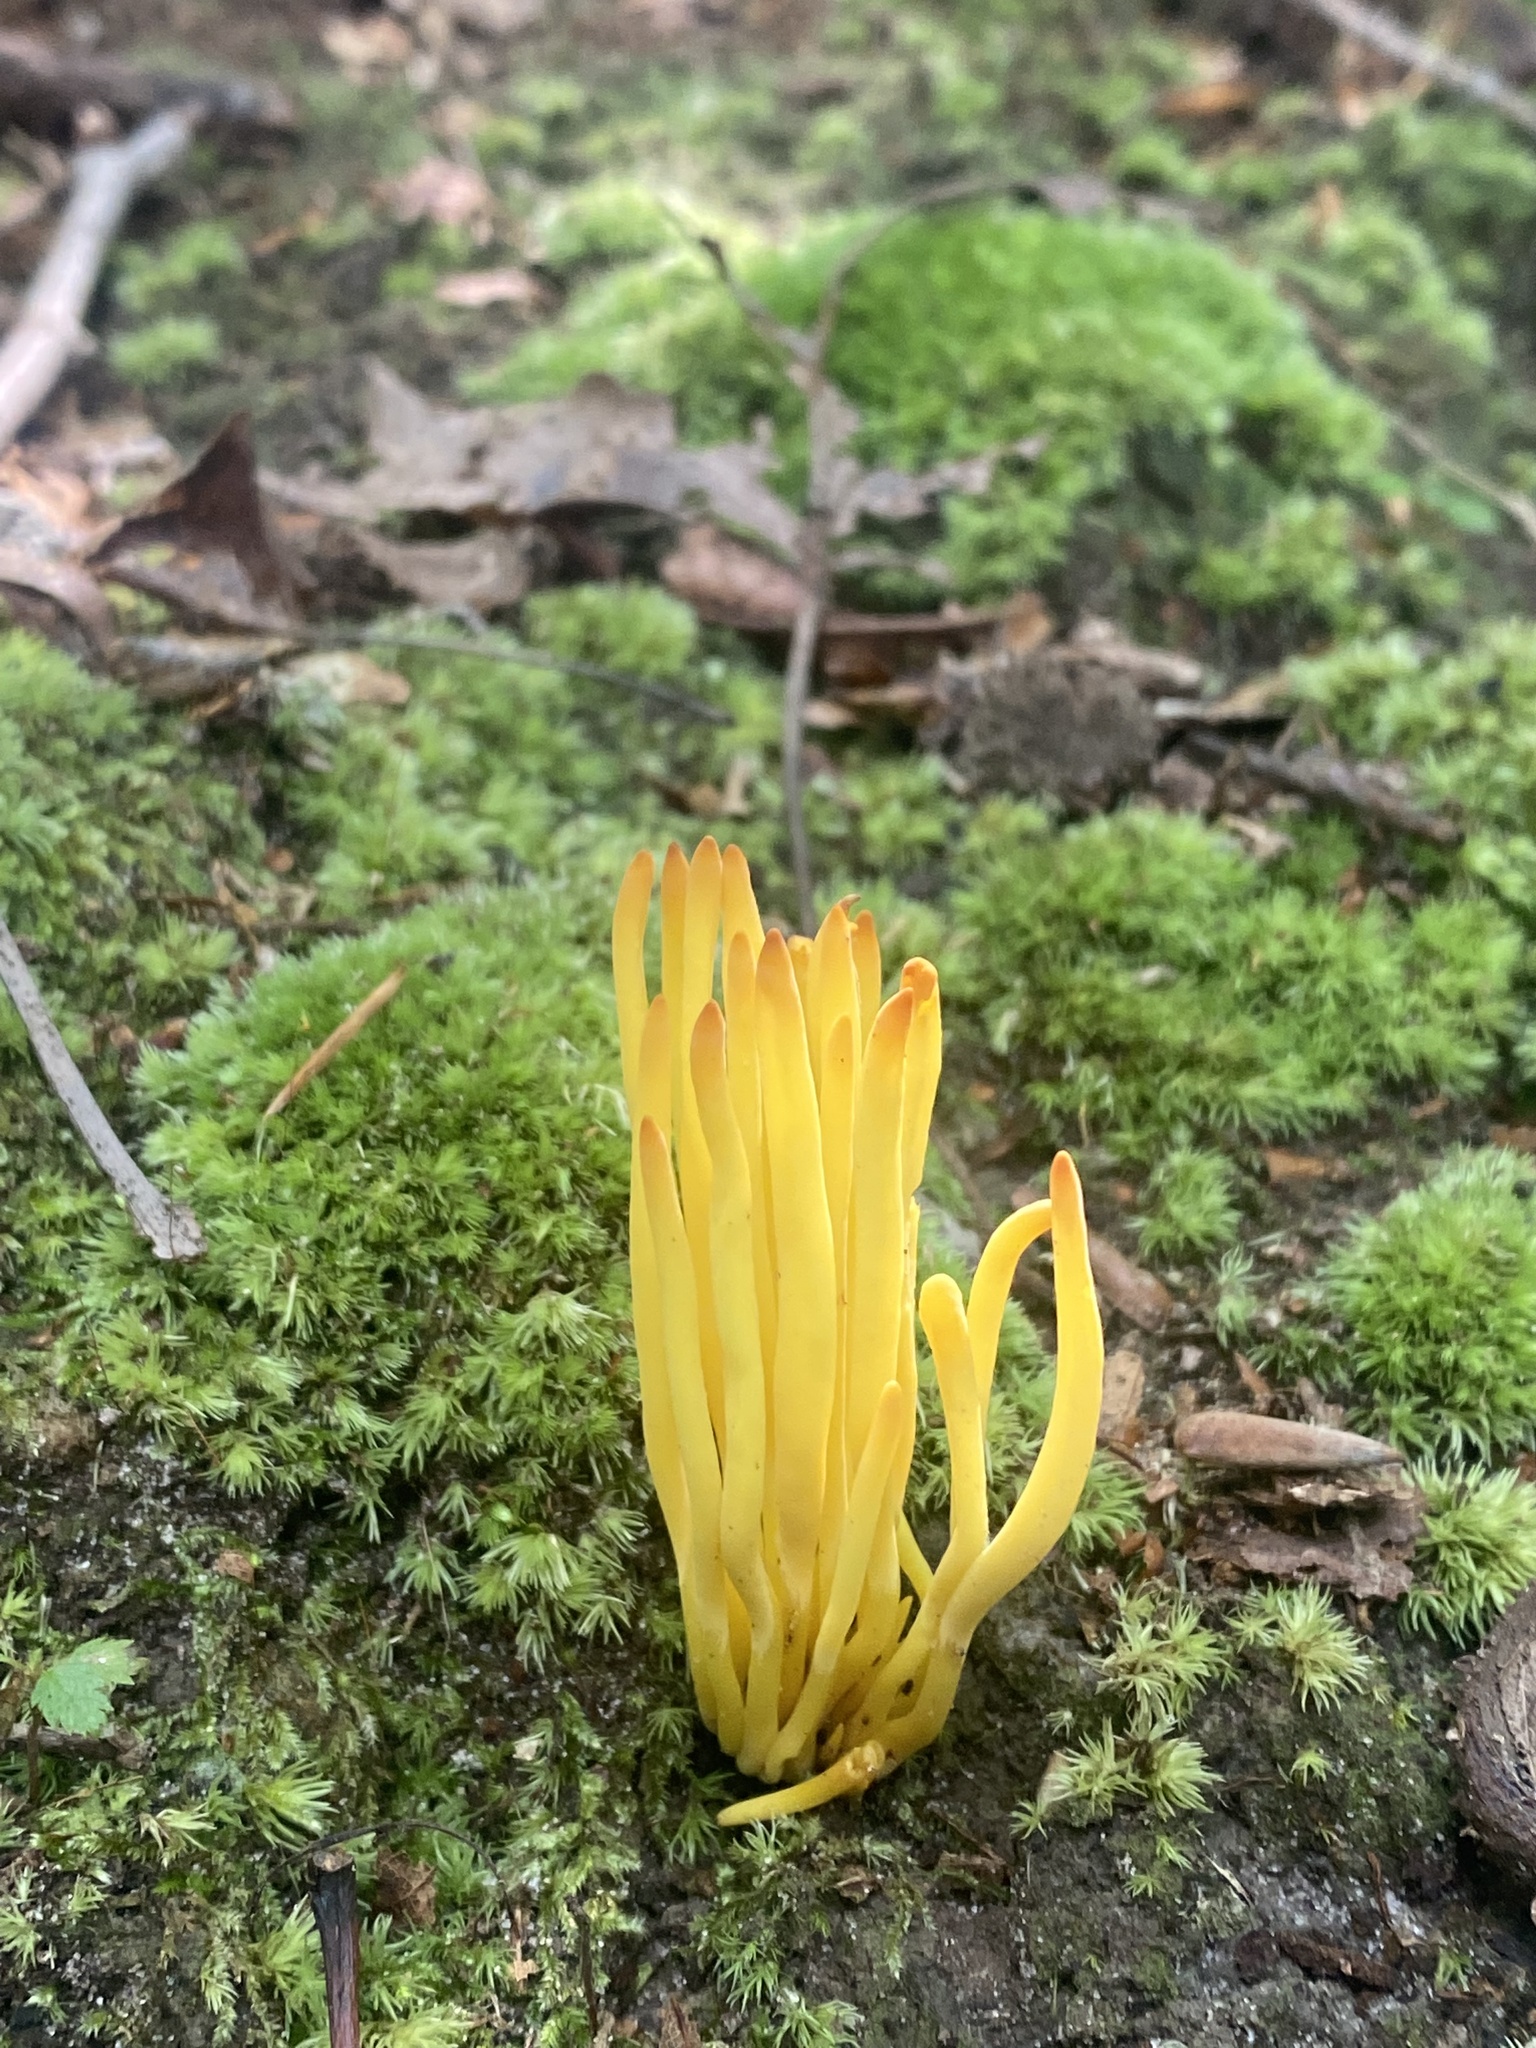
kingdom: Fungi
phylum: Basidiomycota
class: Agaricomycetes
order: Agaricales
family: Clavariaceae
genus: Clavulinopsis
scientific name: Clavulinopsis fusiformis
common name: Golden spindles
